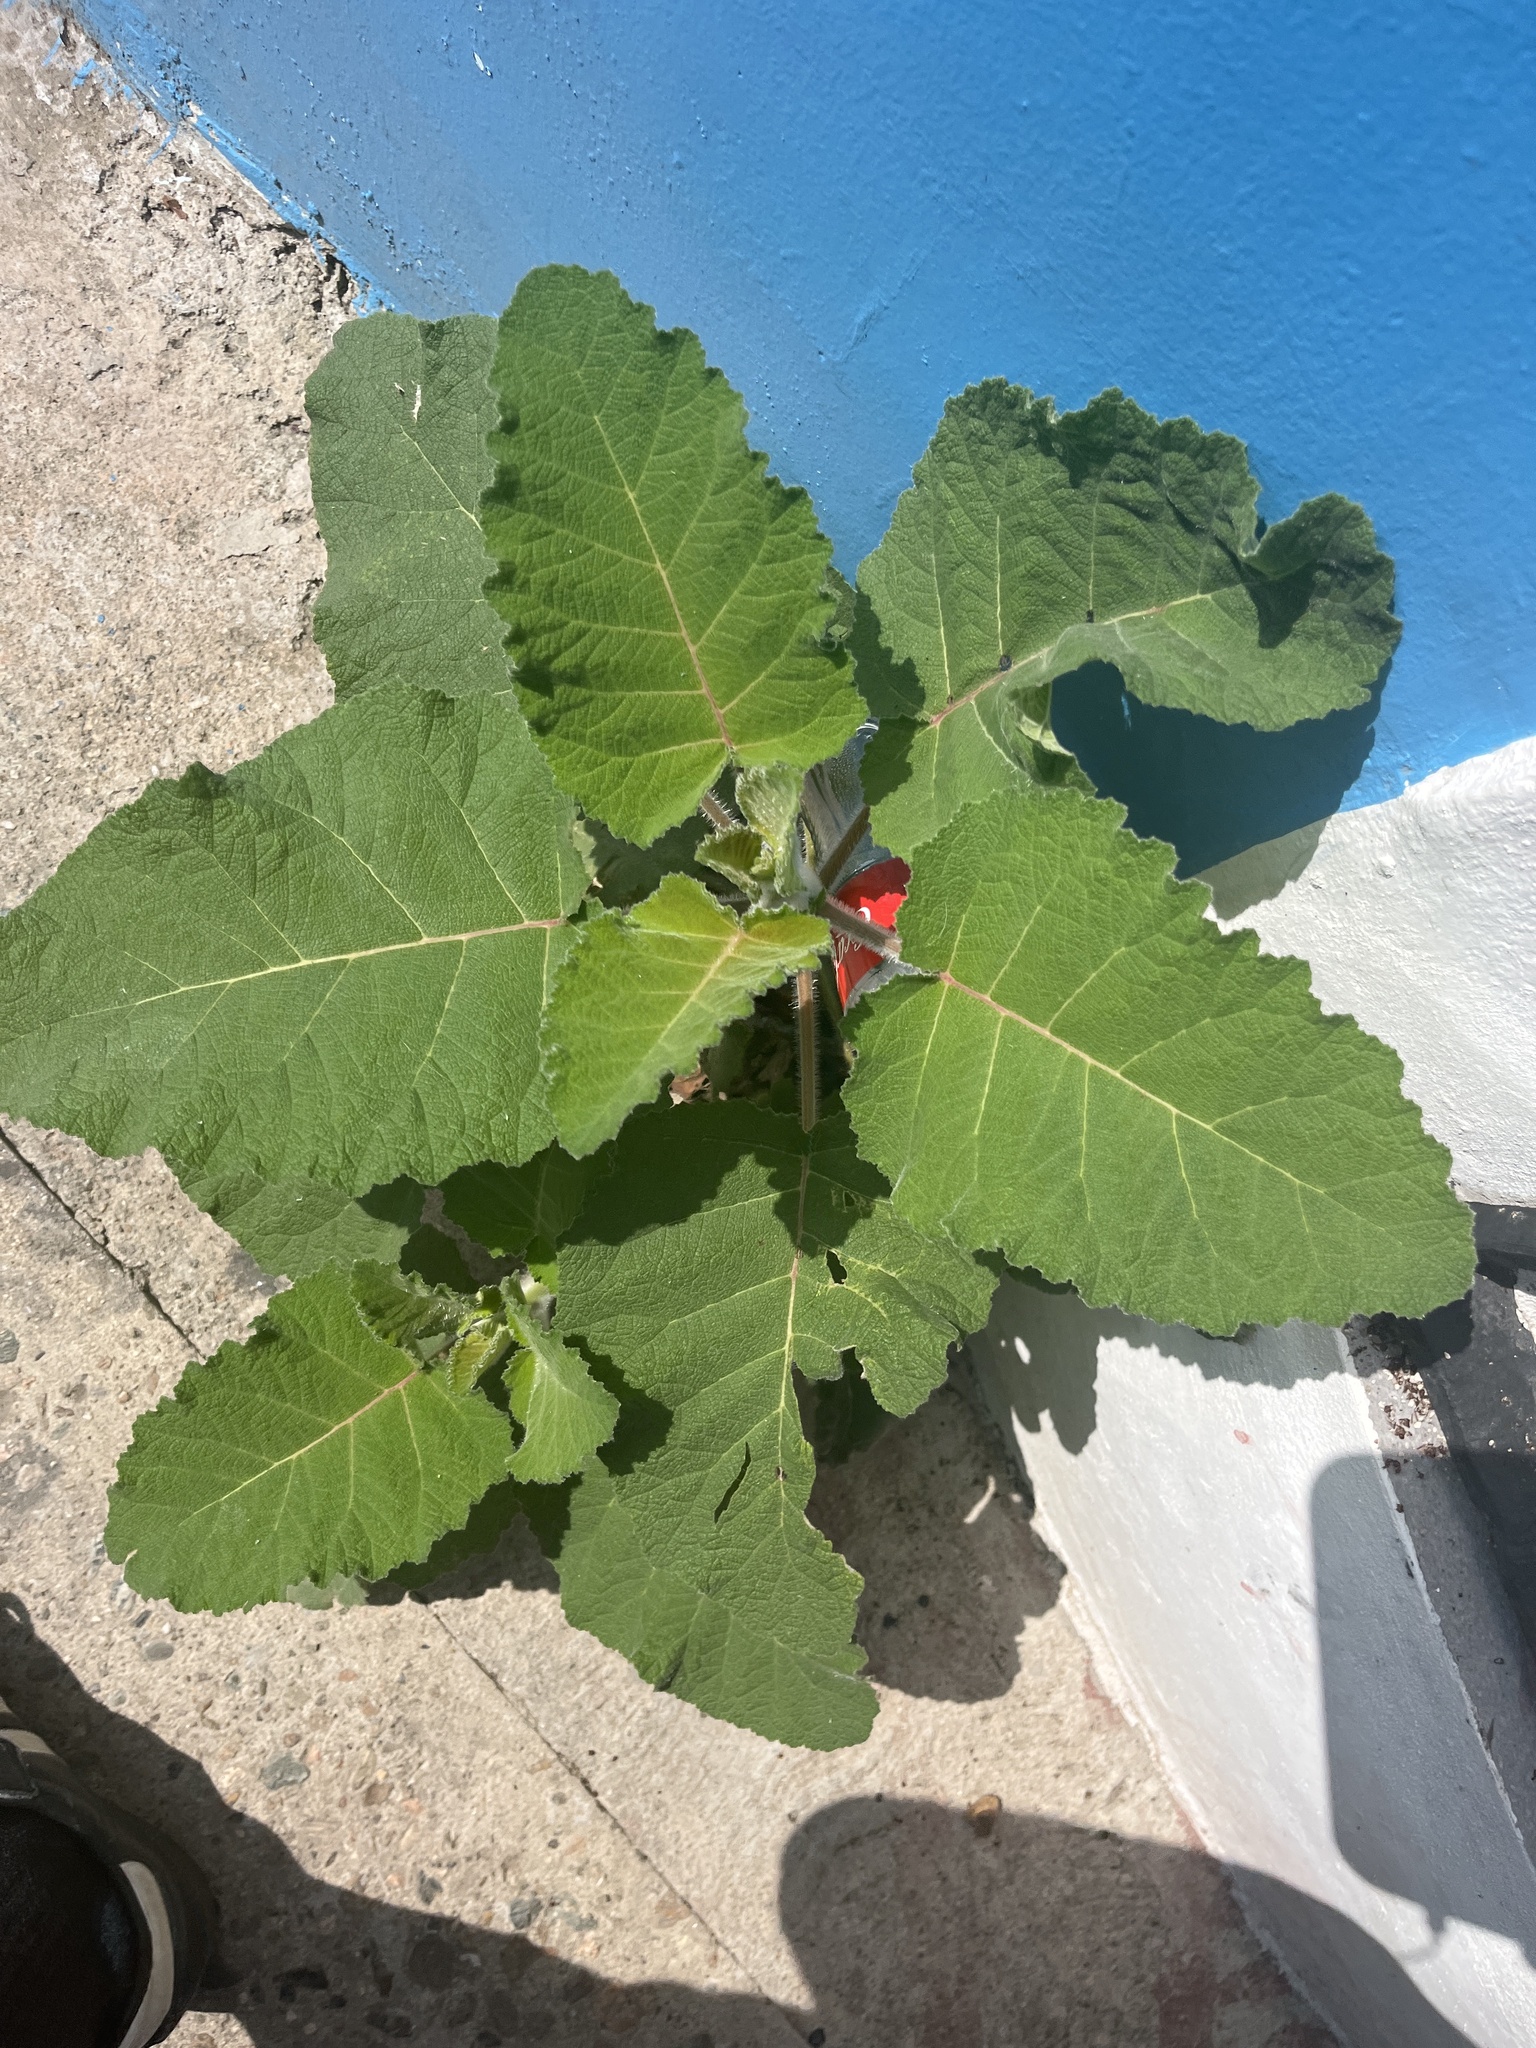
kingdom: Plantae
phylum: Tracheophyta
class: Magnoliopsida
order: Boraginales
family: Namaceae
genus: Wigandia
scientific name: Wigandia urens
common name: Caracus wigandia
